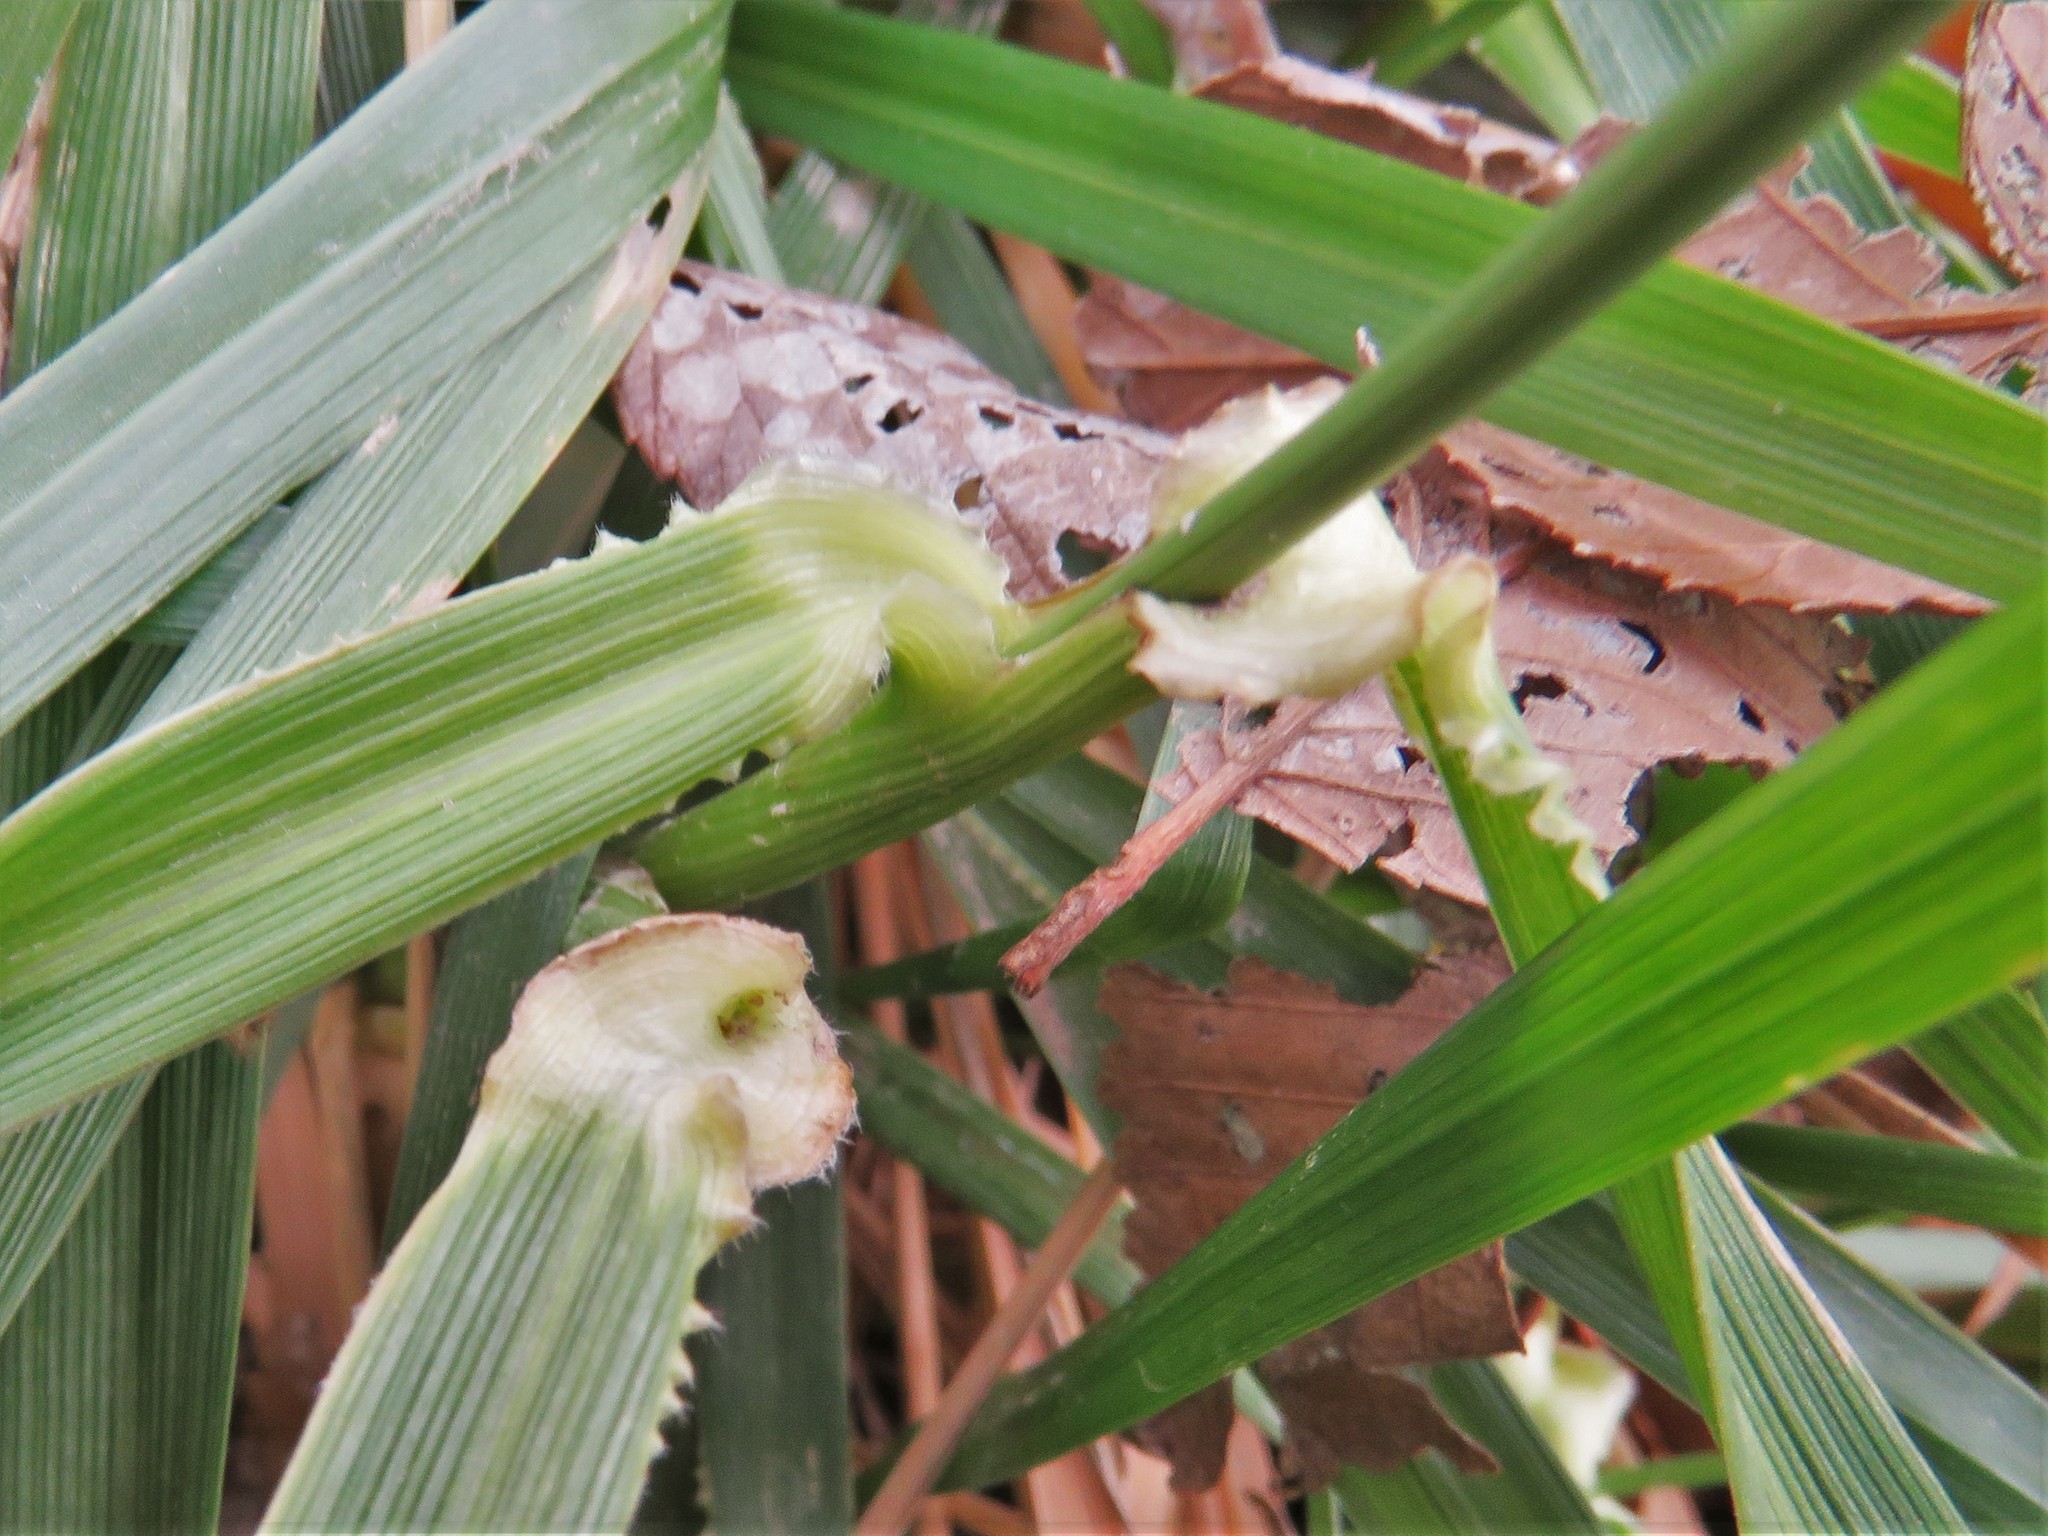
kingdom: Plantae
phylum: Tracheophyta
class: Liliopsida
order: Poales
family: Poaceae
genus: Lolium
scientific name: Lolium arundinaceum
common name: Reed fescue
